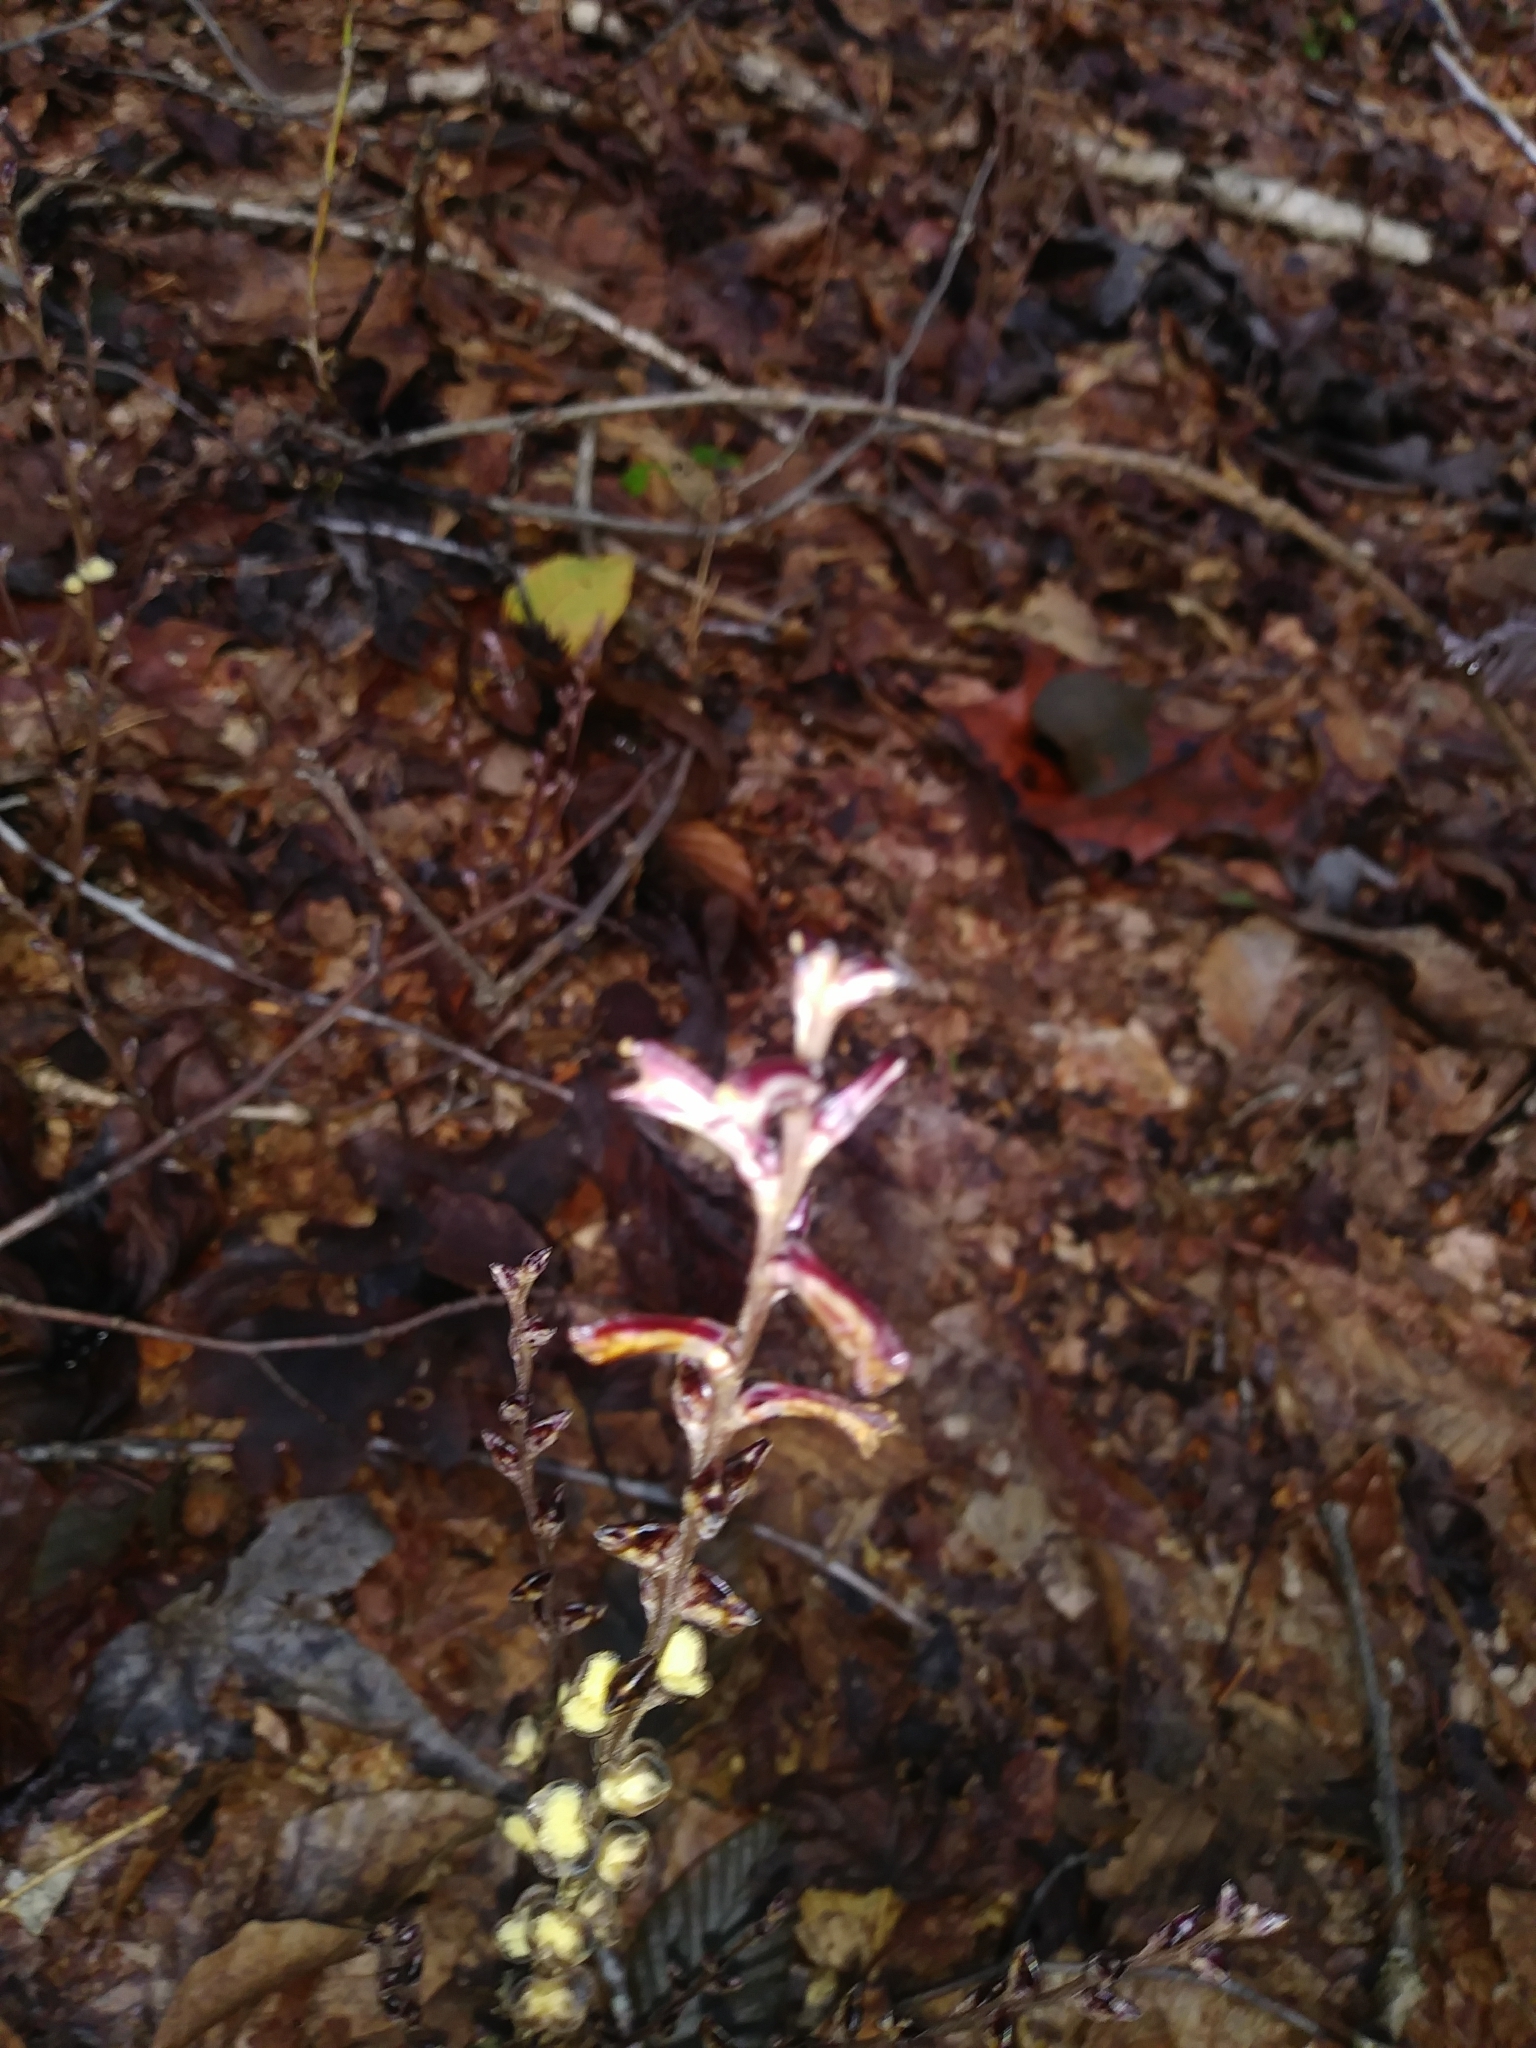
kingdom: Plantae
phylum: Tracheophyta
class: Magnoliopsida
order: Lamiales
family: Orobanchaceae
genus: Epifagus
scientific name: Epifagus virginiana
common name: Beechdrops
